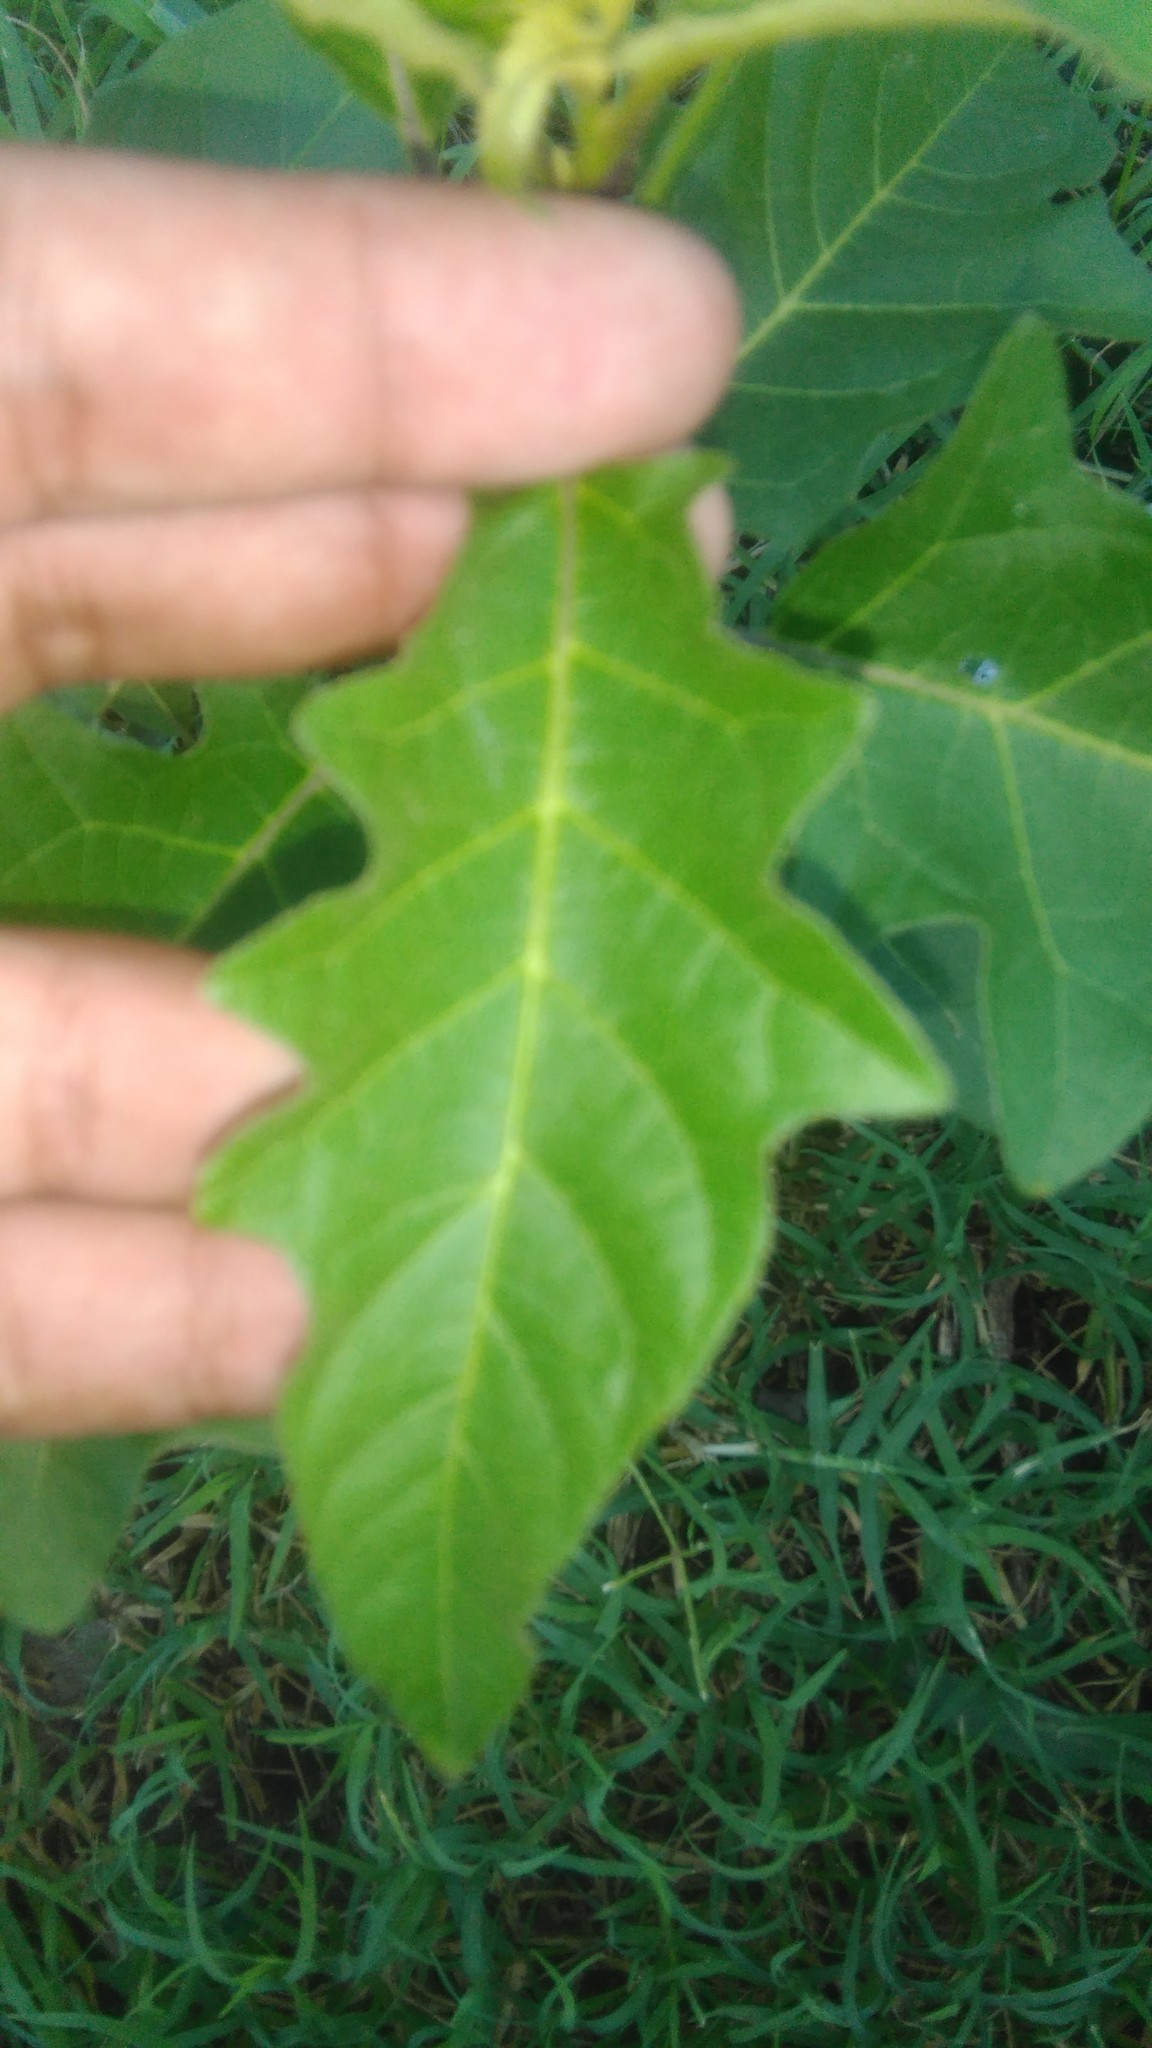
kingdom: Plantae
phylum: Tracheophyta
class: Magnoliopsida
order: Solanales
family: Solanaceae
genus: Solanum
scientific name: Solanum bonariense
